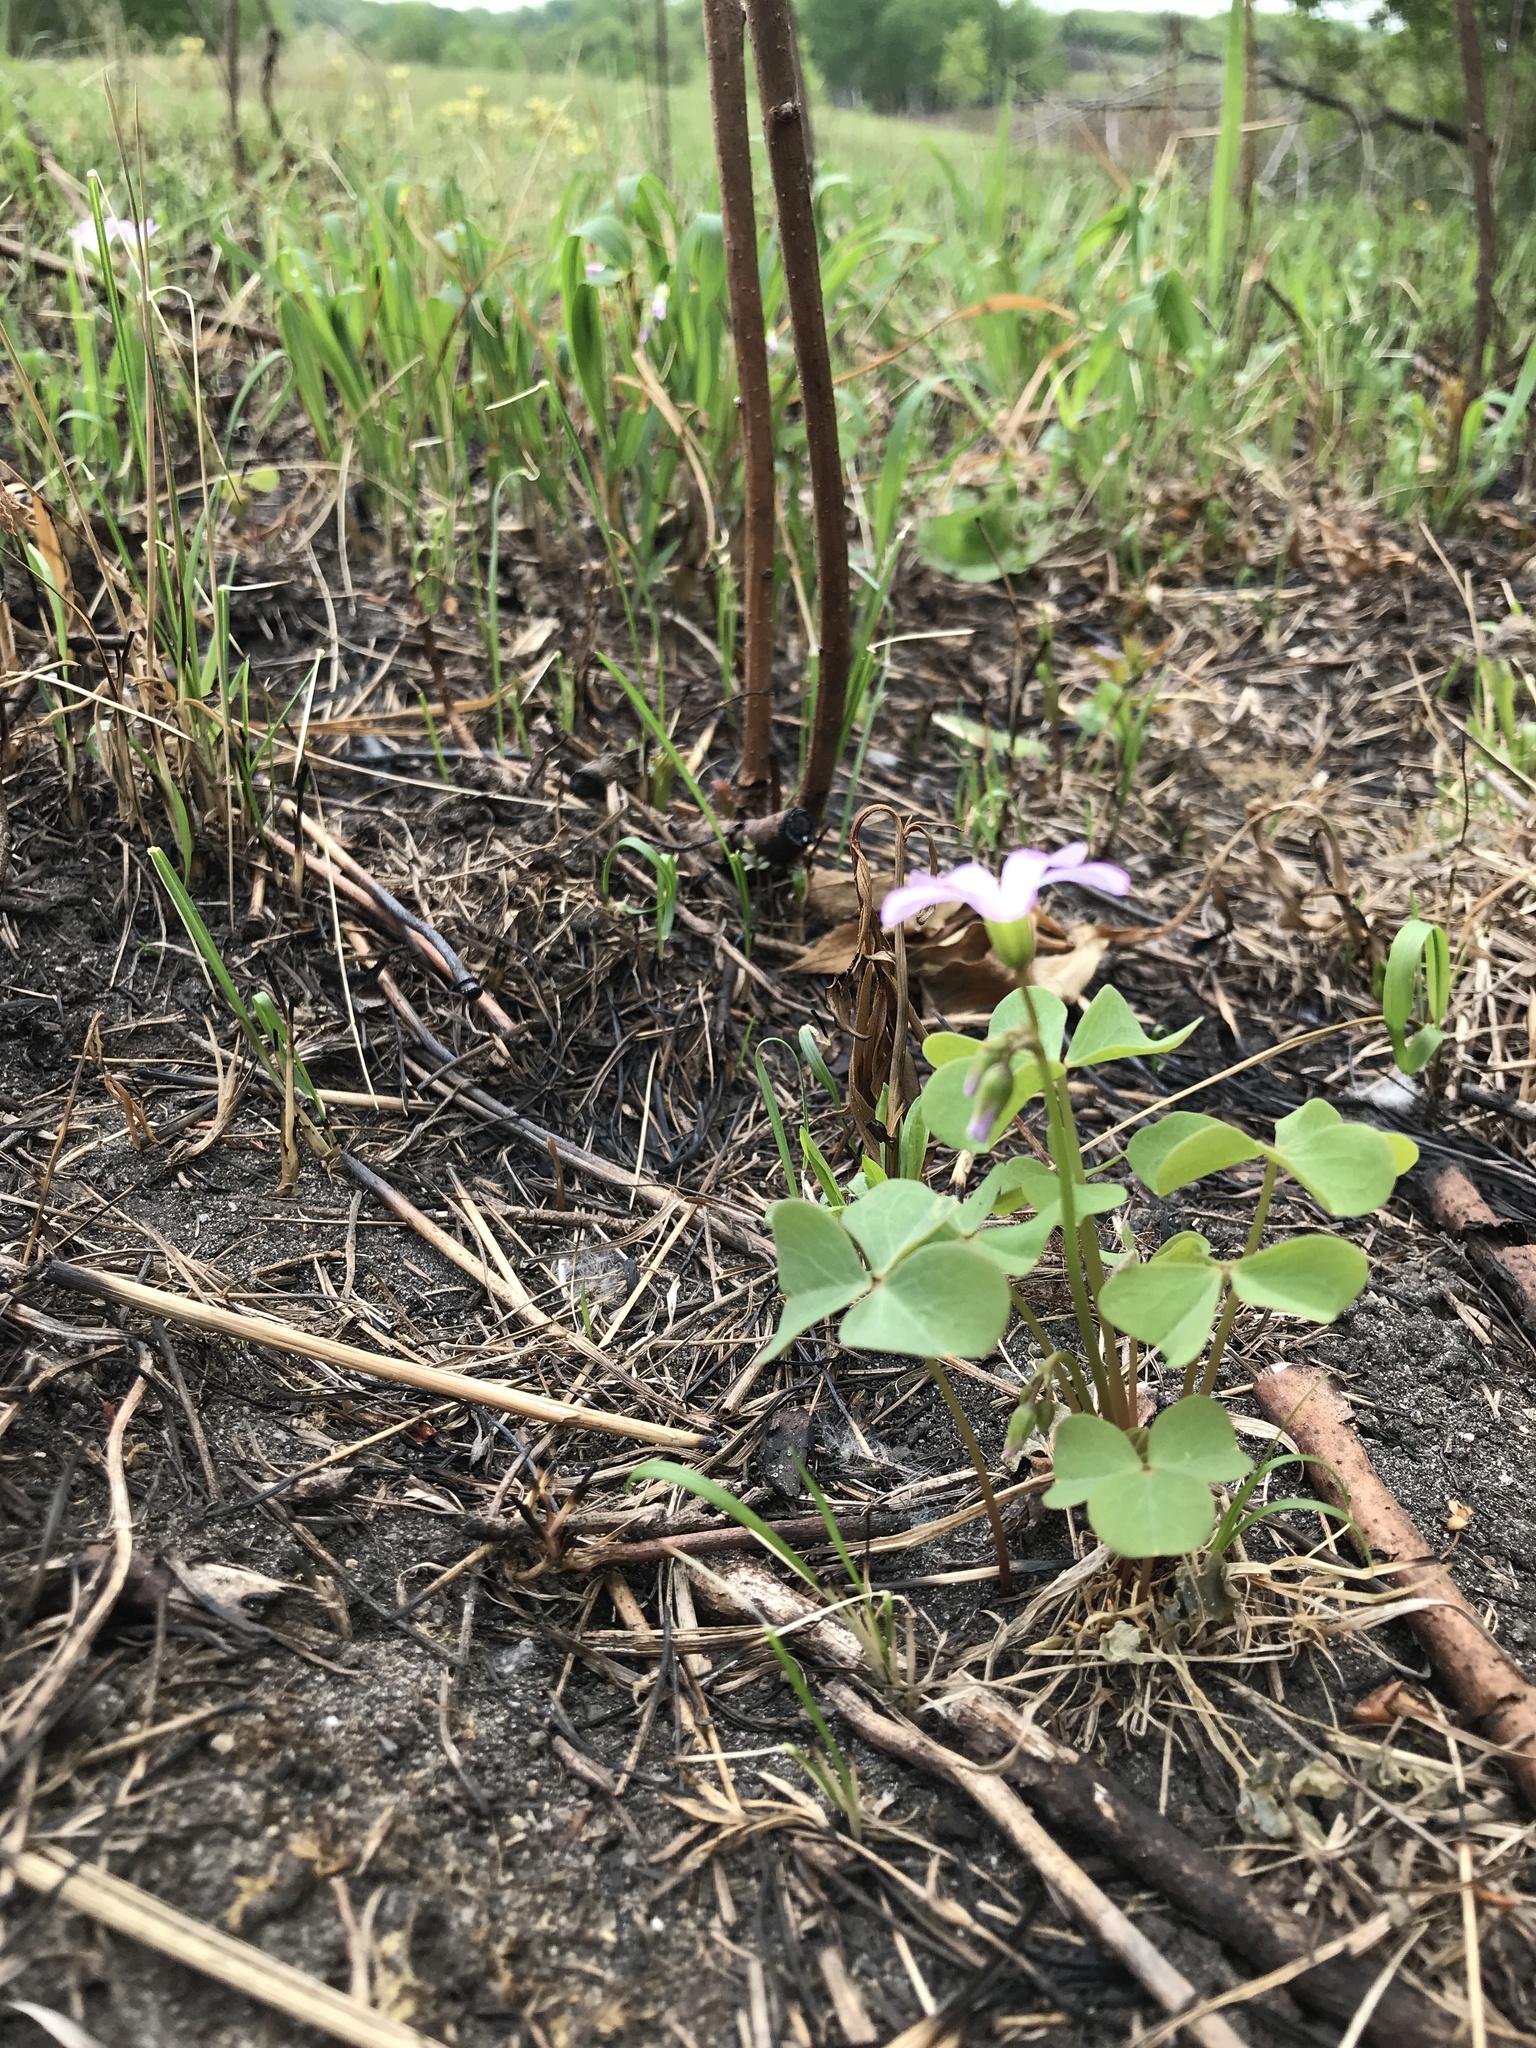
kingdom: Plantae
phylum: Tracheophyta
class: Magnoliopsida
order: Oxalidales
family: Oxalidaceae
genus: Oxalis
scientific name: Oxalis violacea
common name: Violet wood-sorrel
